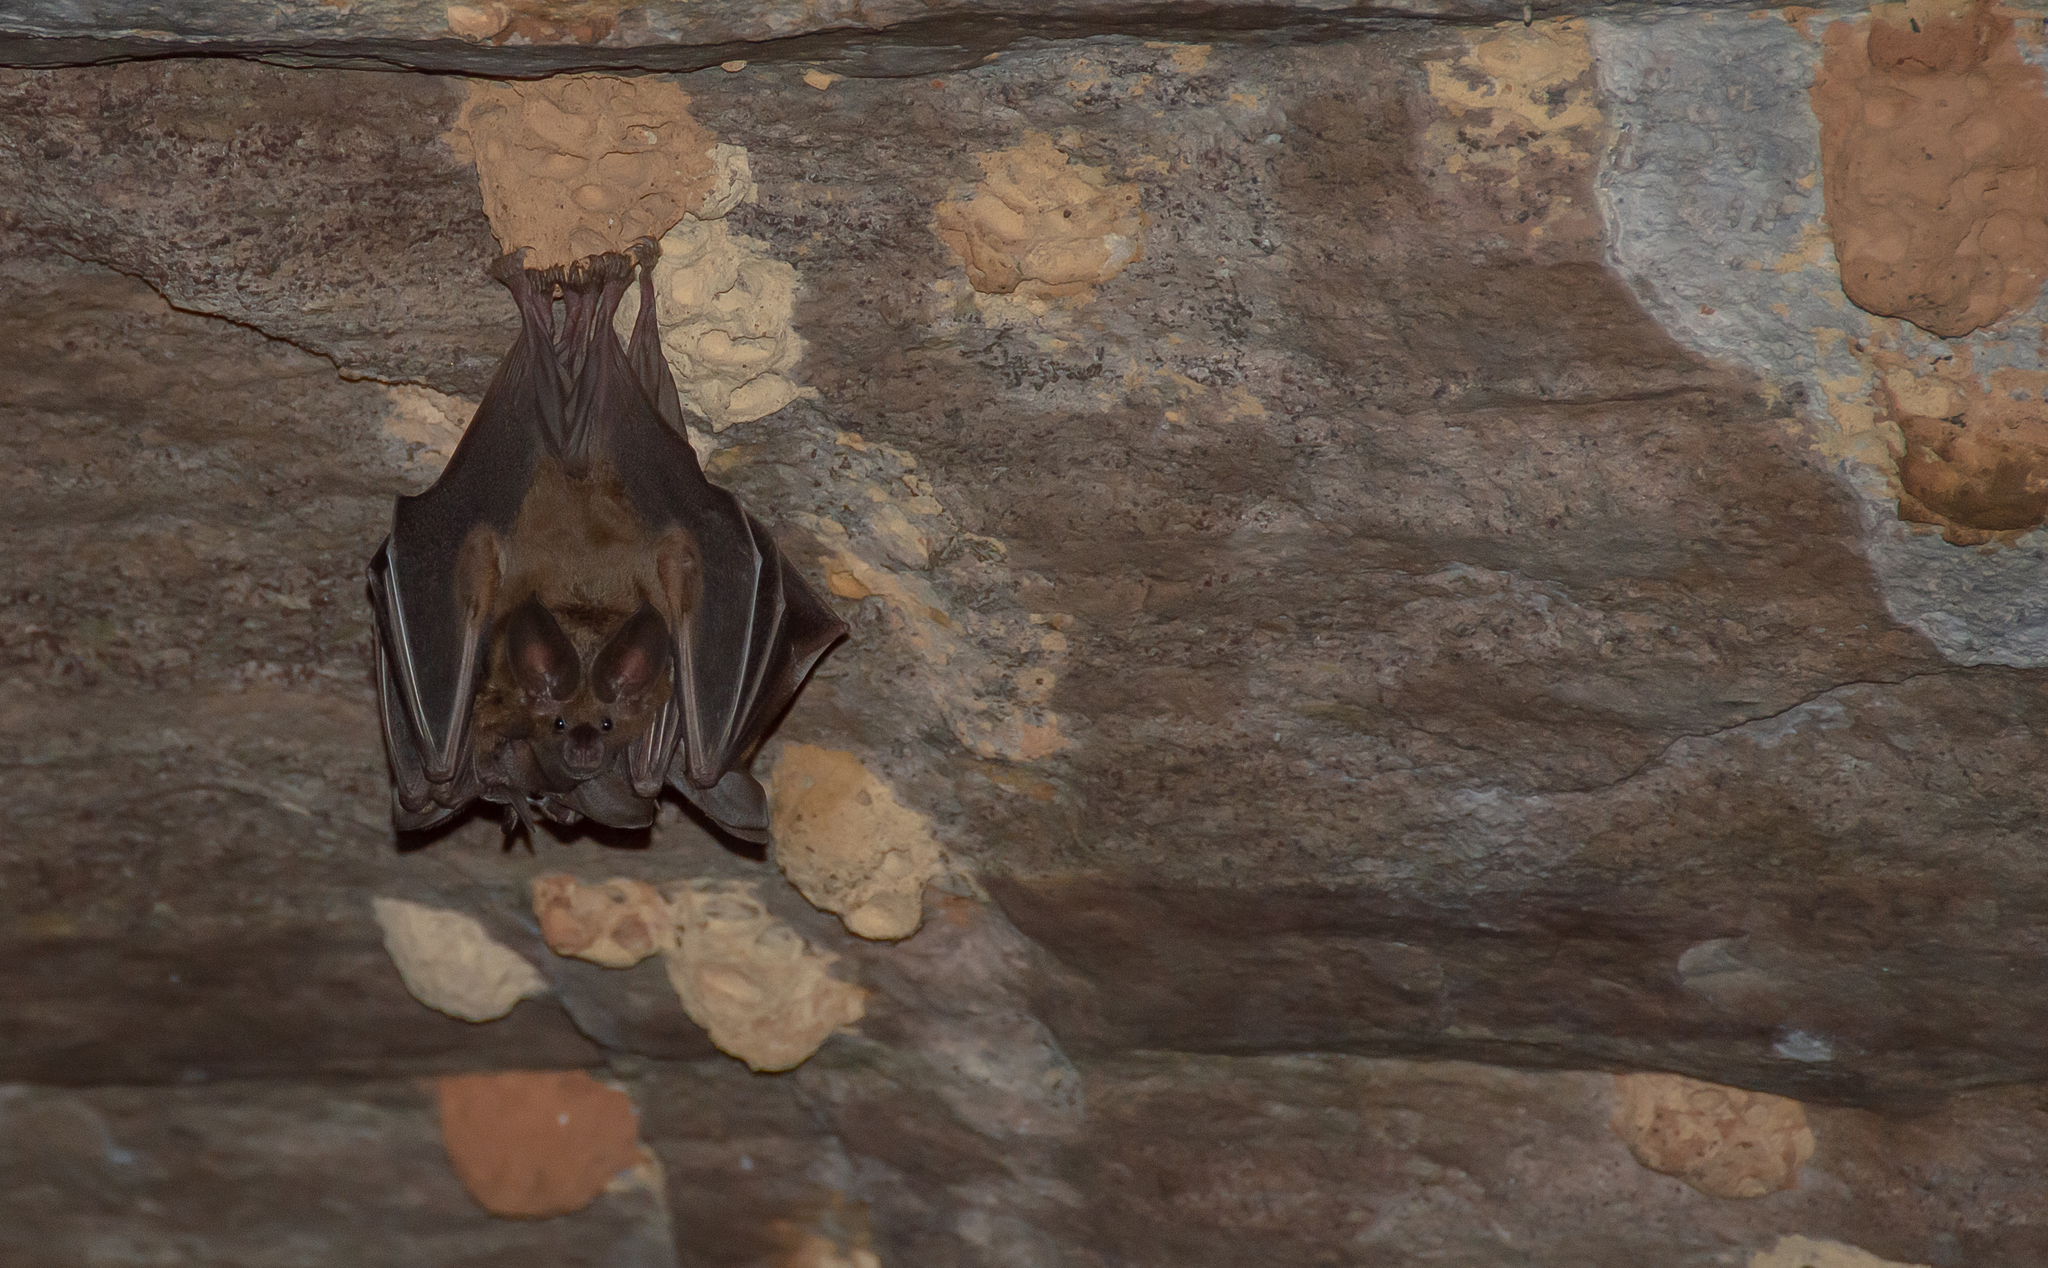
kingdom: Animalia
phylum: Chordata
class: Mammalia
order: Chiroptera
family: Phyllostomidae
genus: Mimon
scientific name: Mimon bennettii
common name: Southern golden bat
